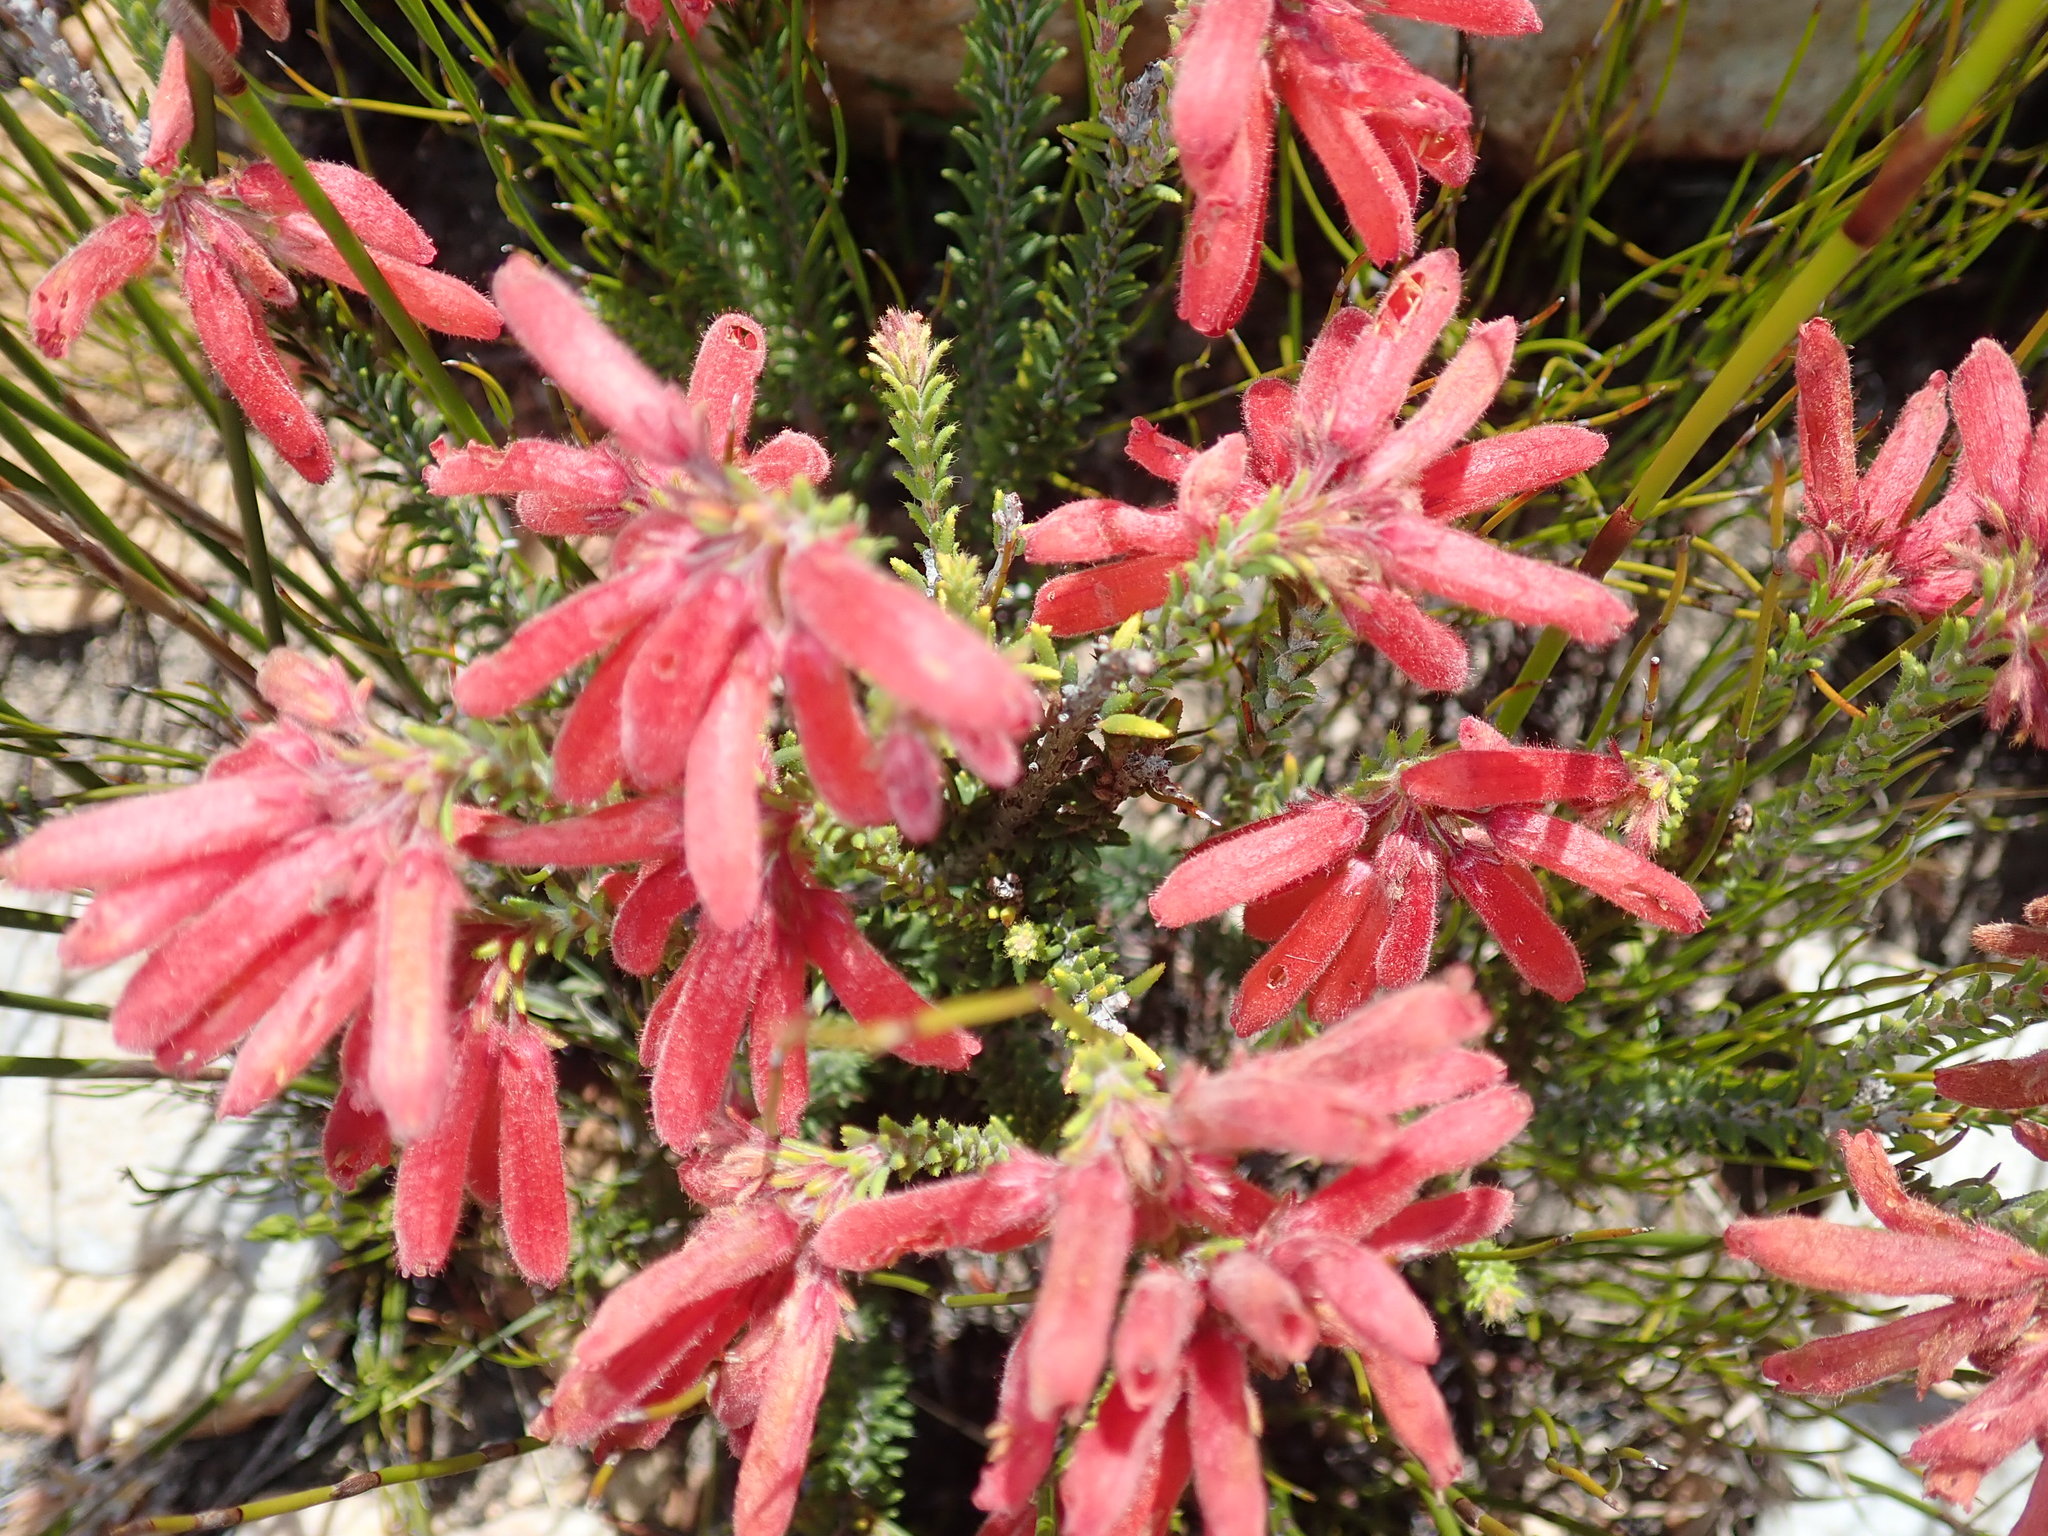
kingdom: Plantae
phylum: Tracheophyta
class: Magnoliopsida
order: Ericales
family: Ericaceae
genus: Erica
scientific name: Erica cerinthoides
